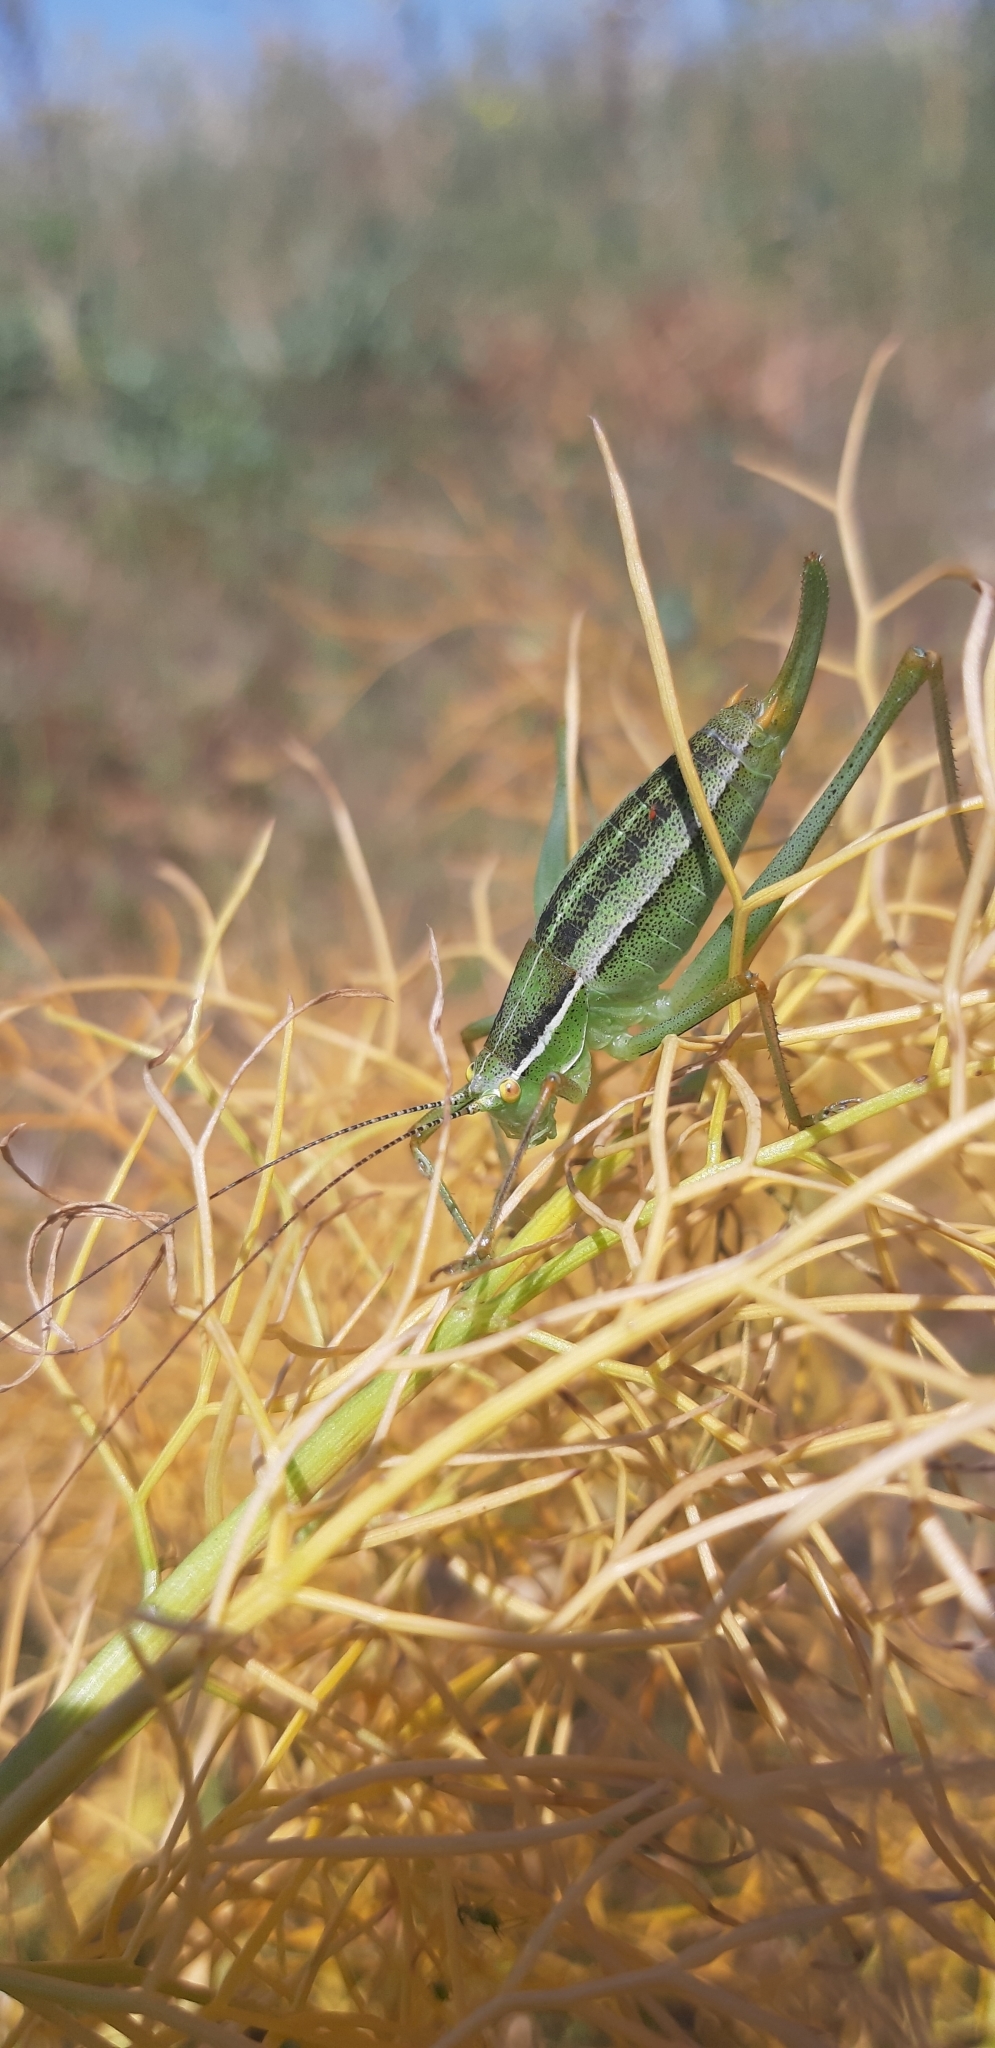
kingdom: Animalia
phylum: Arthropoda
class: Insecta
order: Orthoptera
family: Tettigoniidae
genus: Poecilimon
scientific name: Poecilimon superbus
